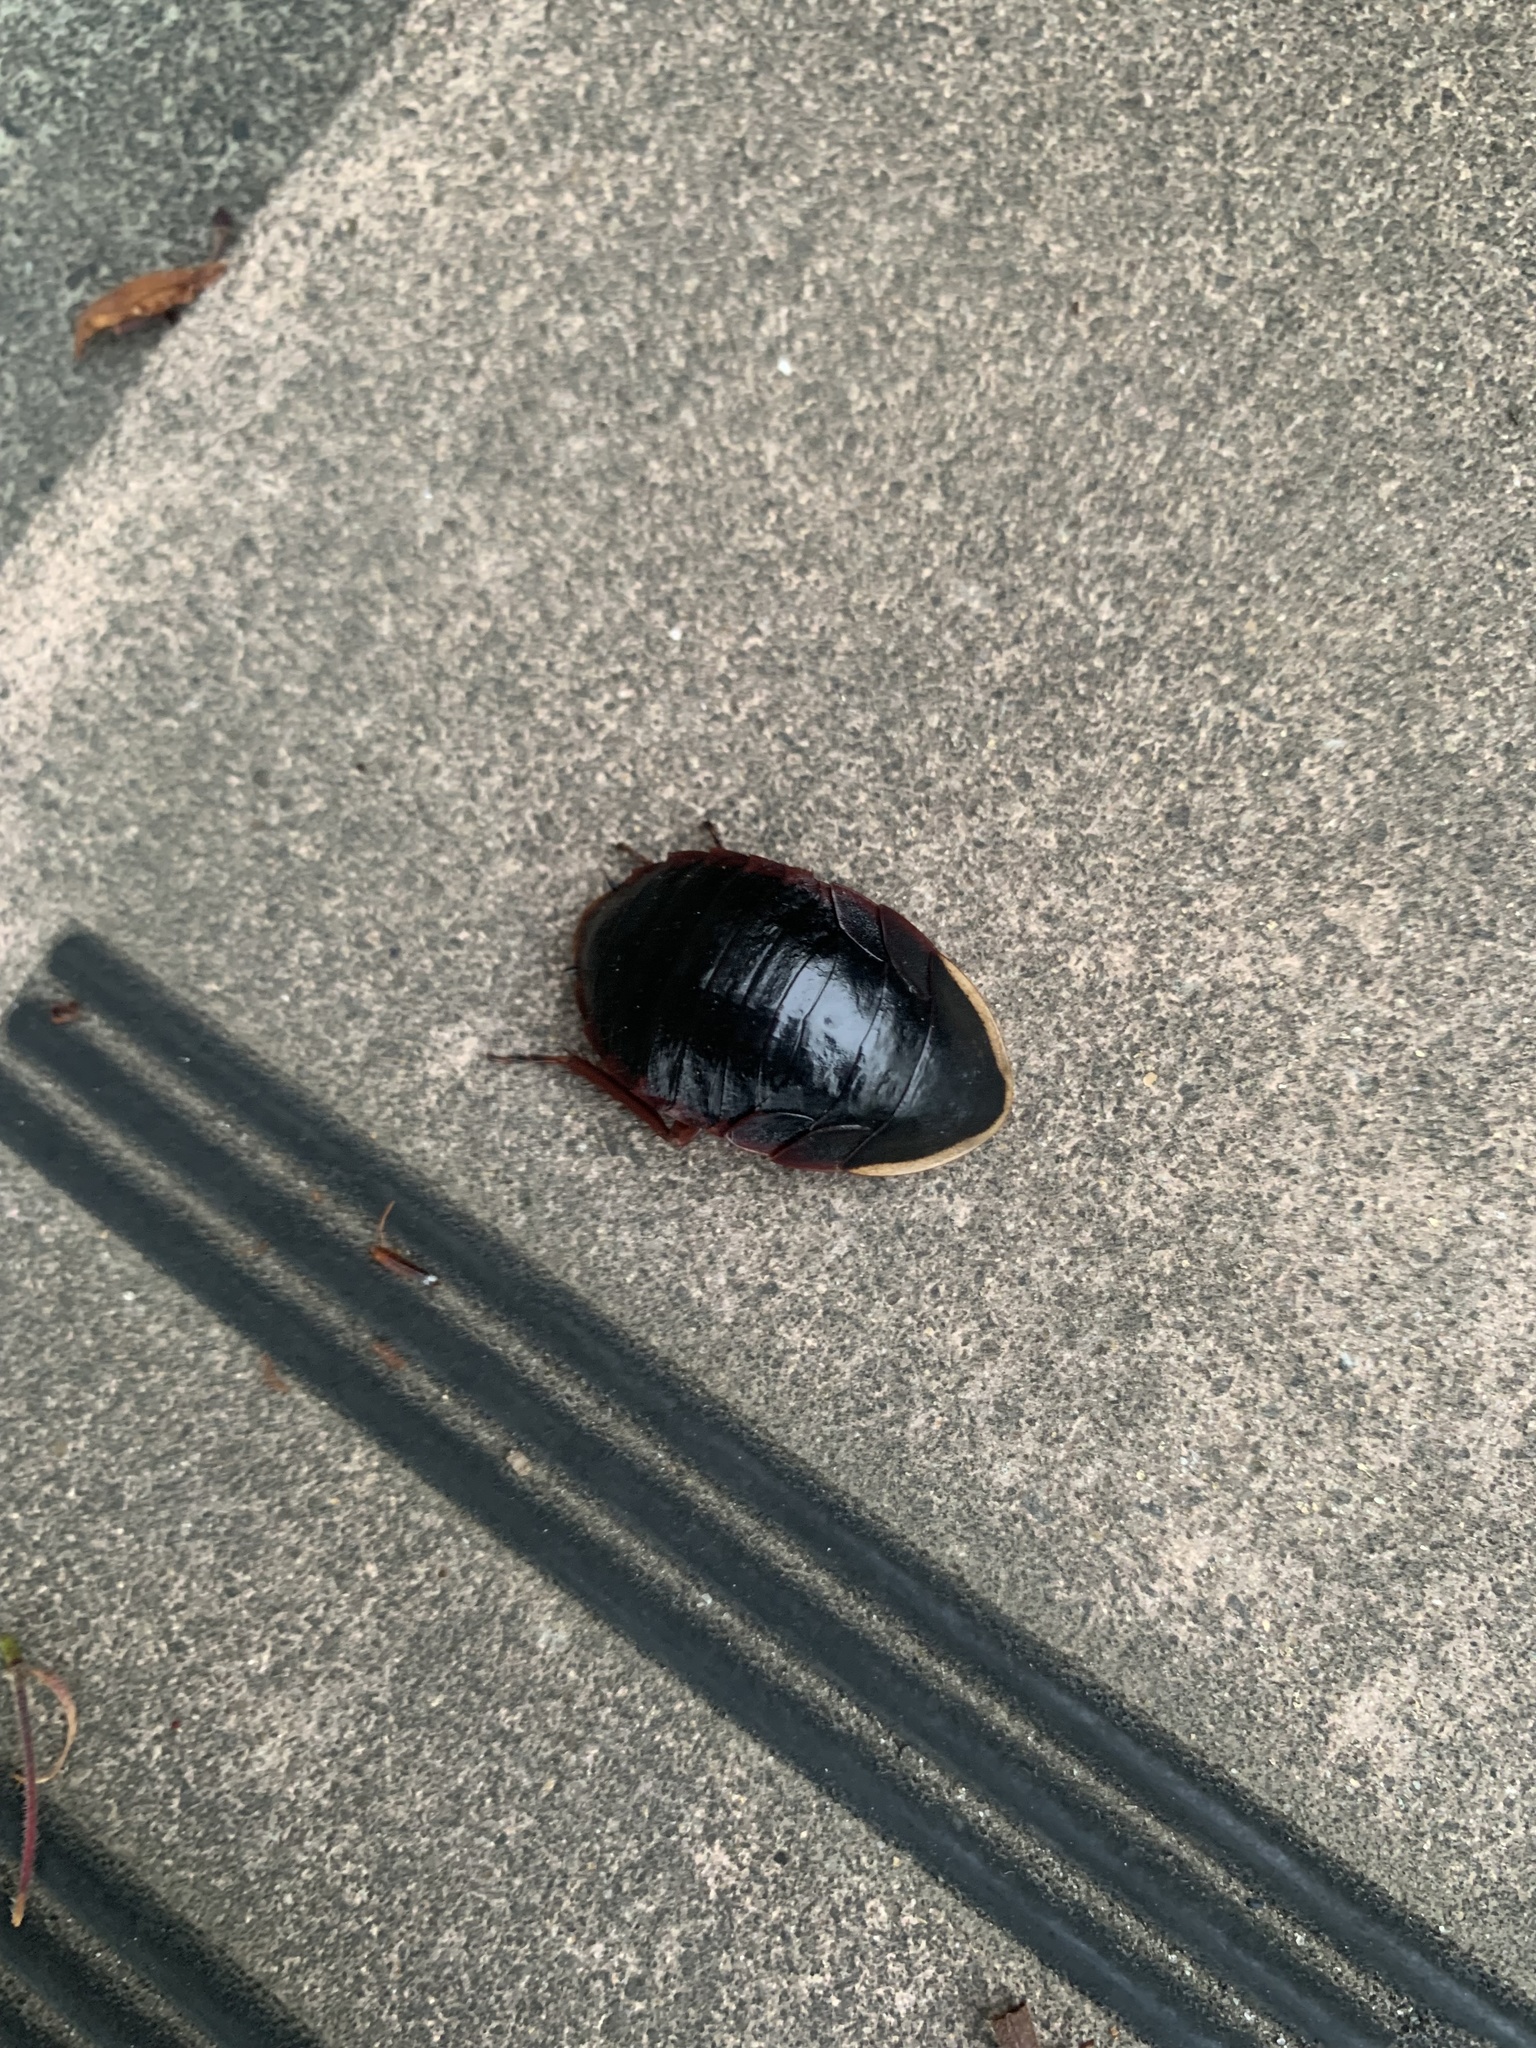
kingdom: Animalia
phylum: Arthropoda
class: Insecta
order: Blattodea
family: Blaberidae
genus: Opisthoplatia
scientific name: Opisthoplatia orientalis
